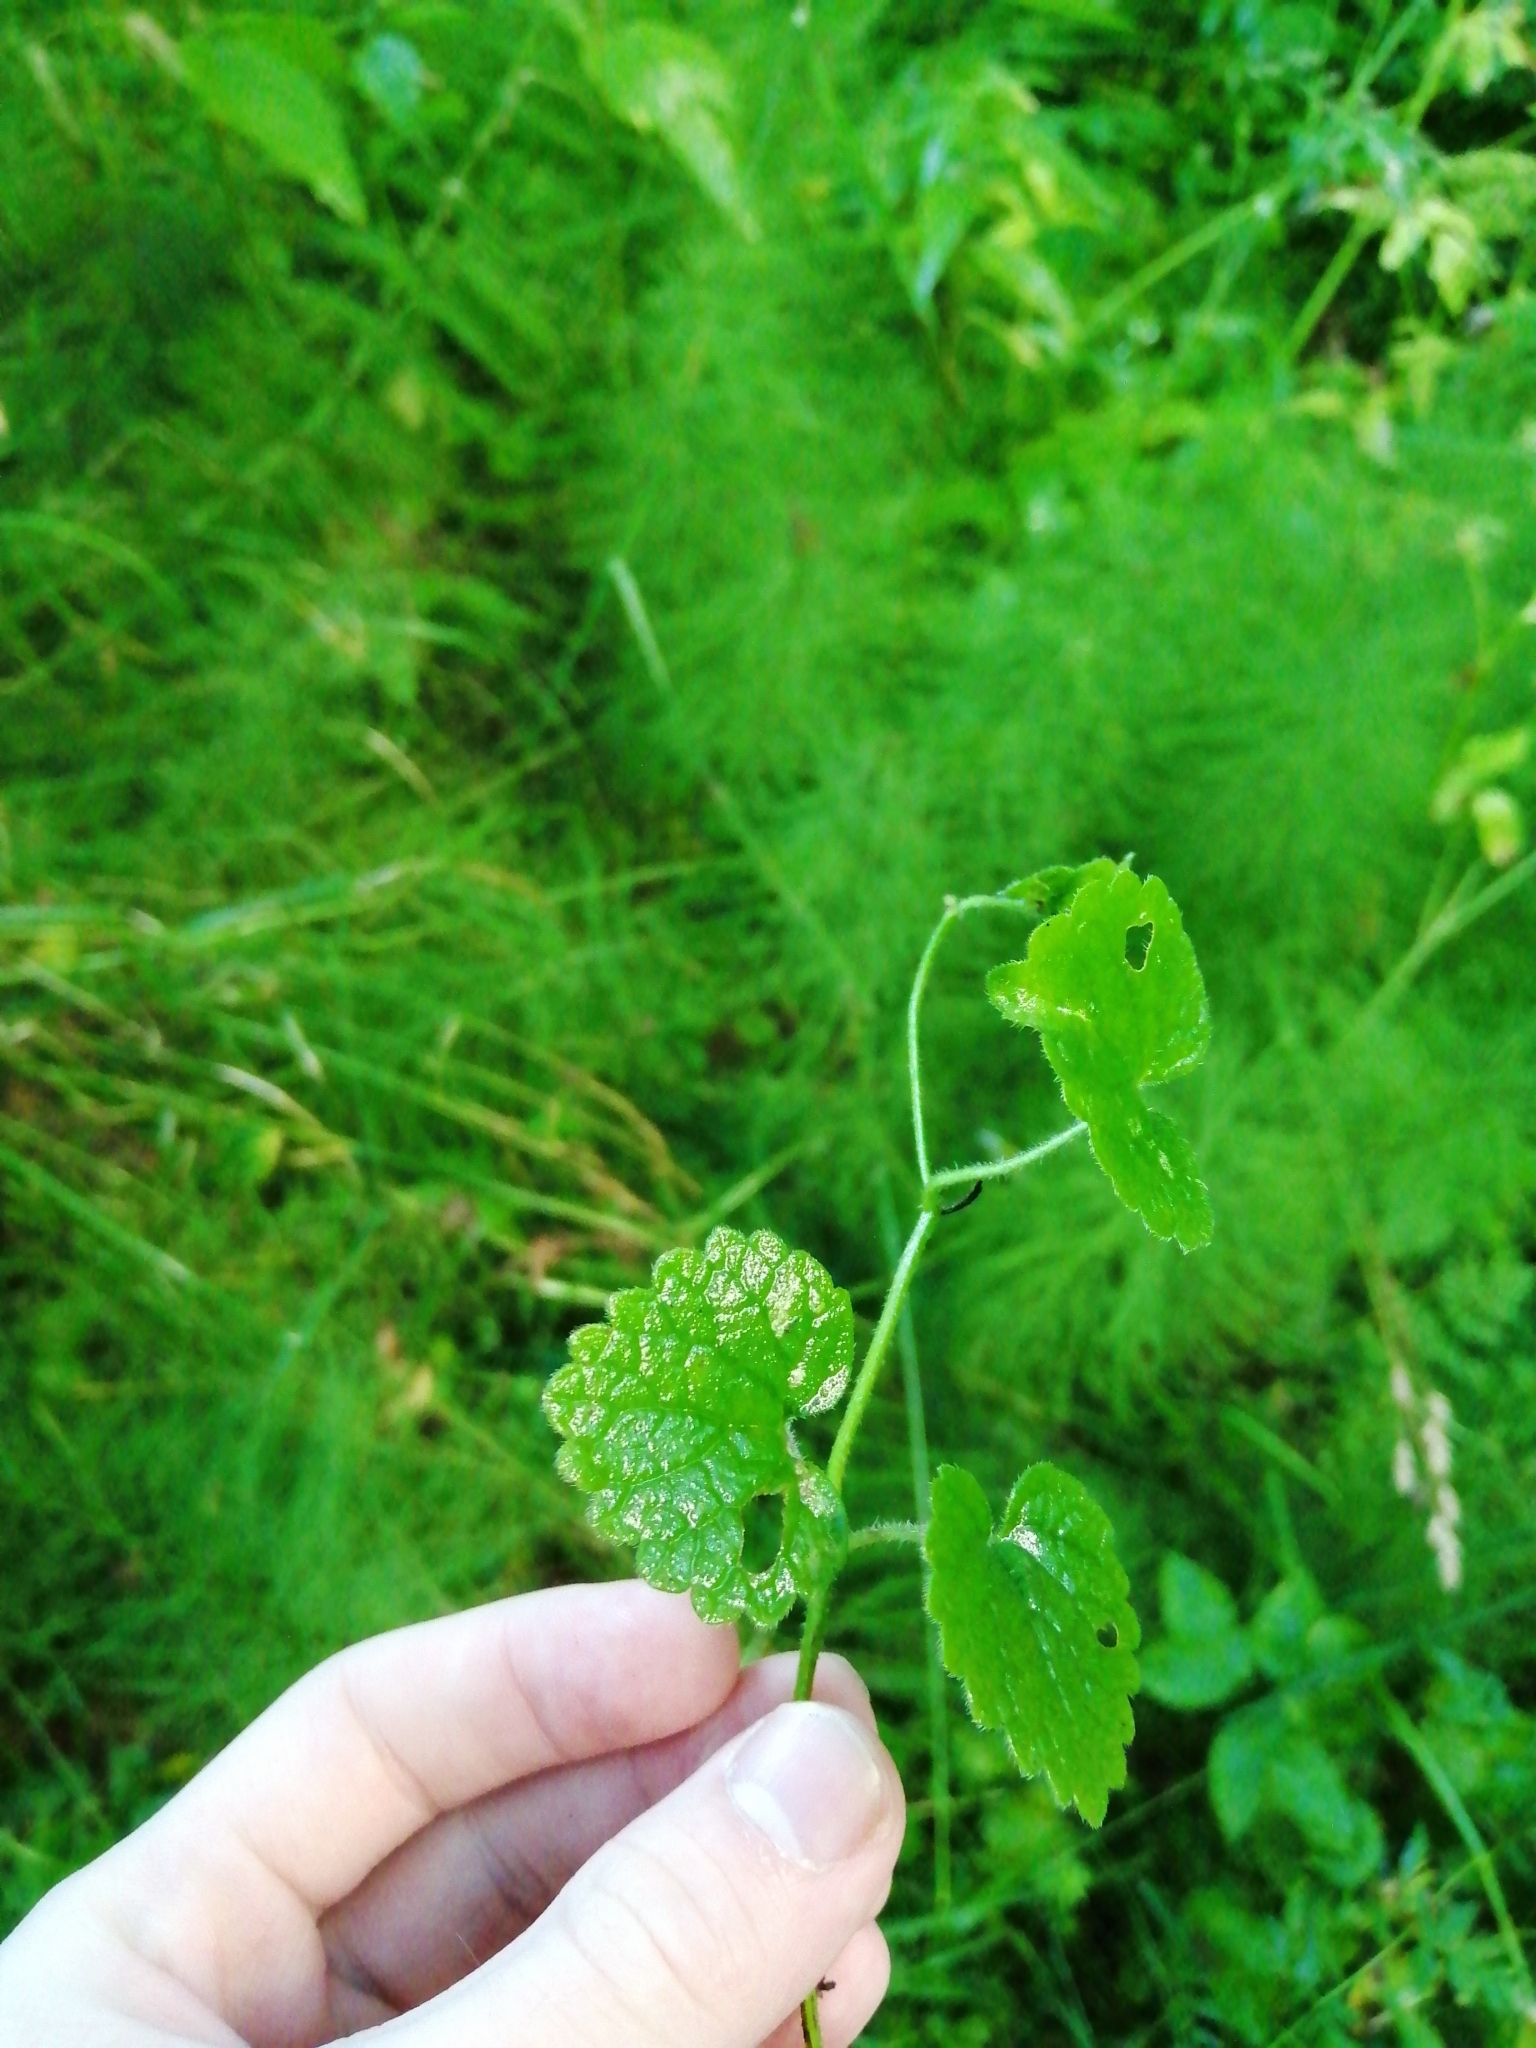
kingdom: Plantae
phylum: Tracheophyta
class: Magnoliopsida
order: Lamiales
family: Lamiaceae
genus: Glechoma
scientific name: Glechoma hederacea
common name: Ground ivy
